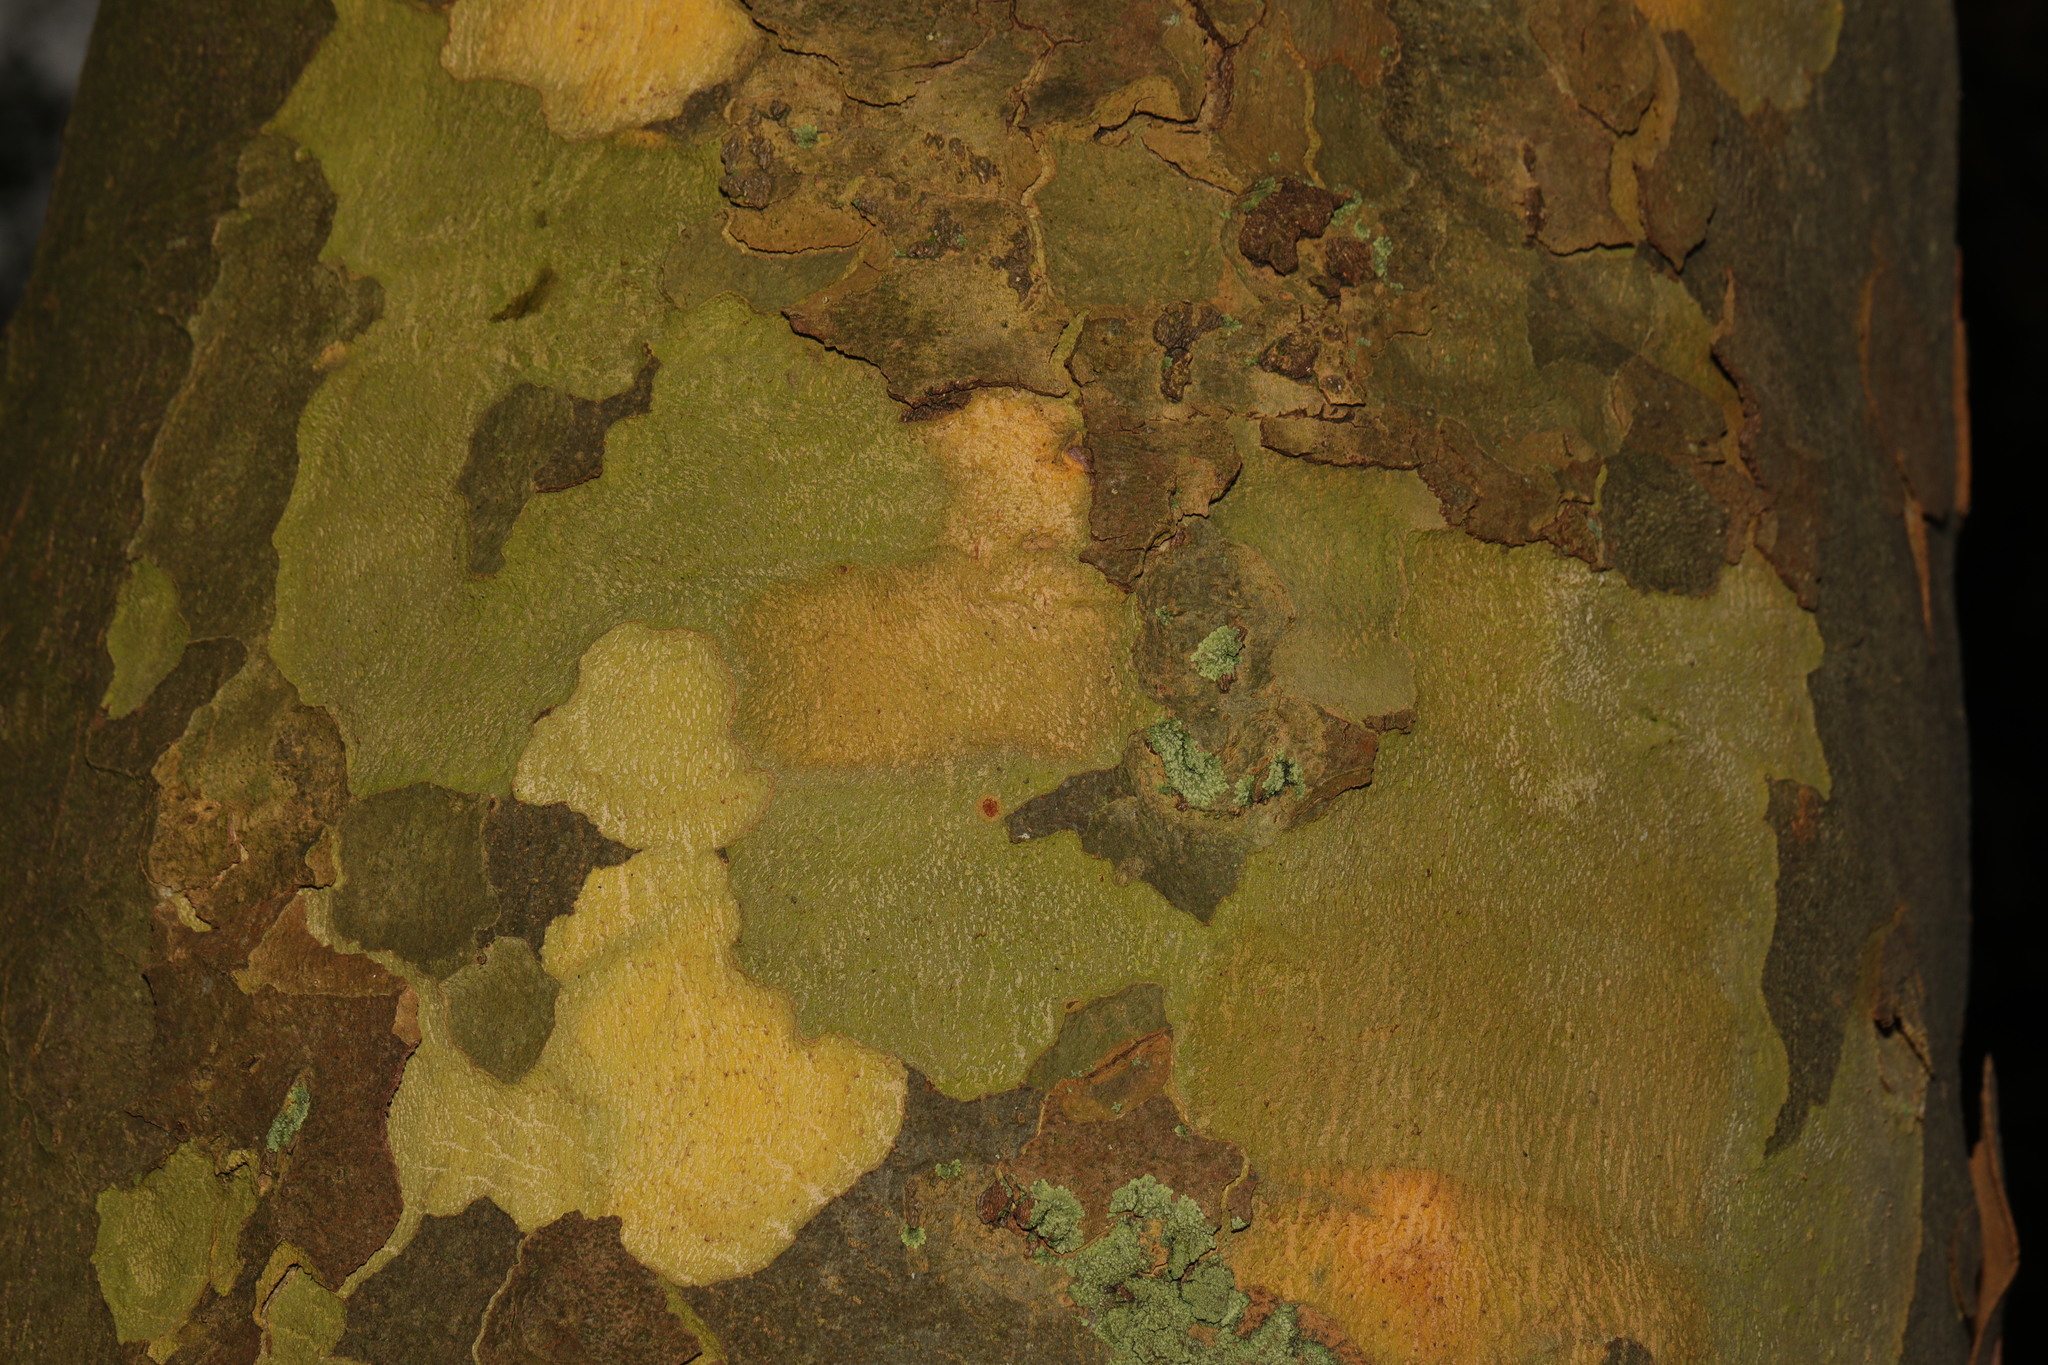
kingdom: Plantae
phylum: Tracheophyta
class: Magnoliopsida
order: Proteales
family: Platanaceae
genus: Platanus
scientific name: Platanus hispanica
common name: London plane
